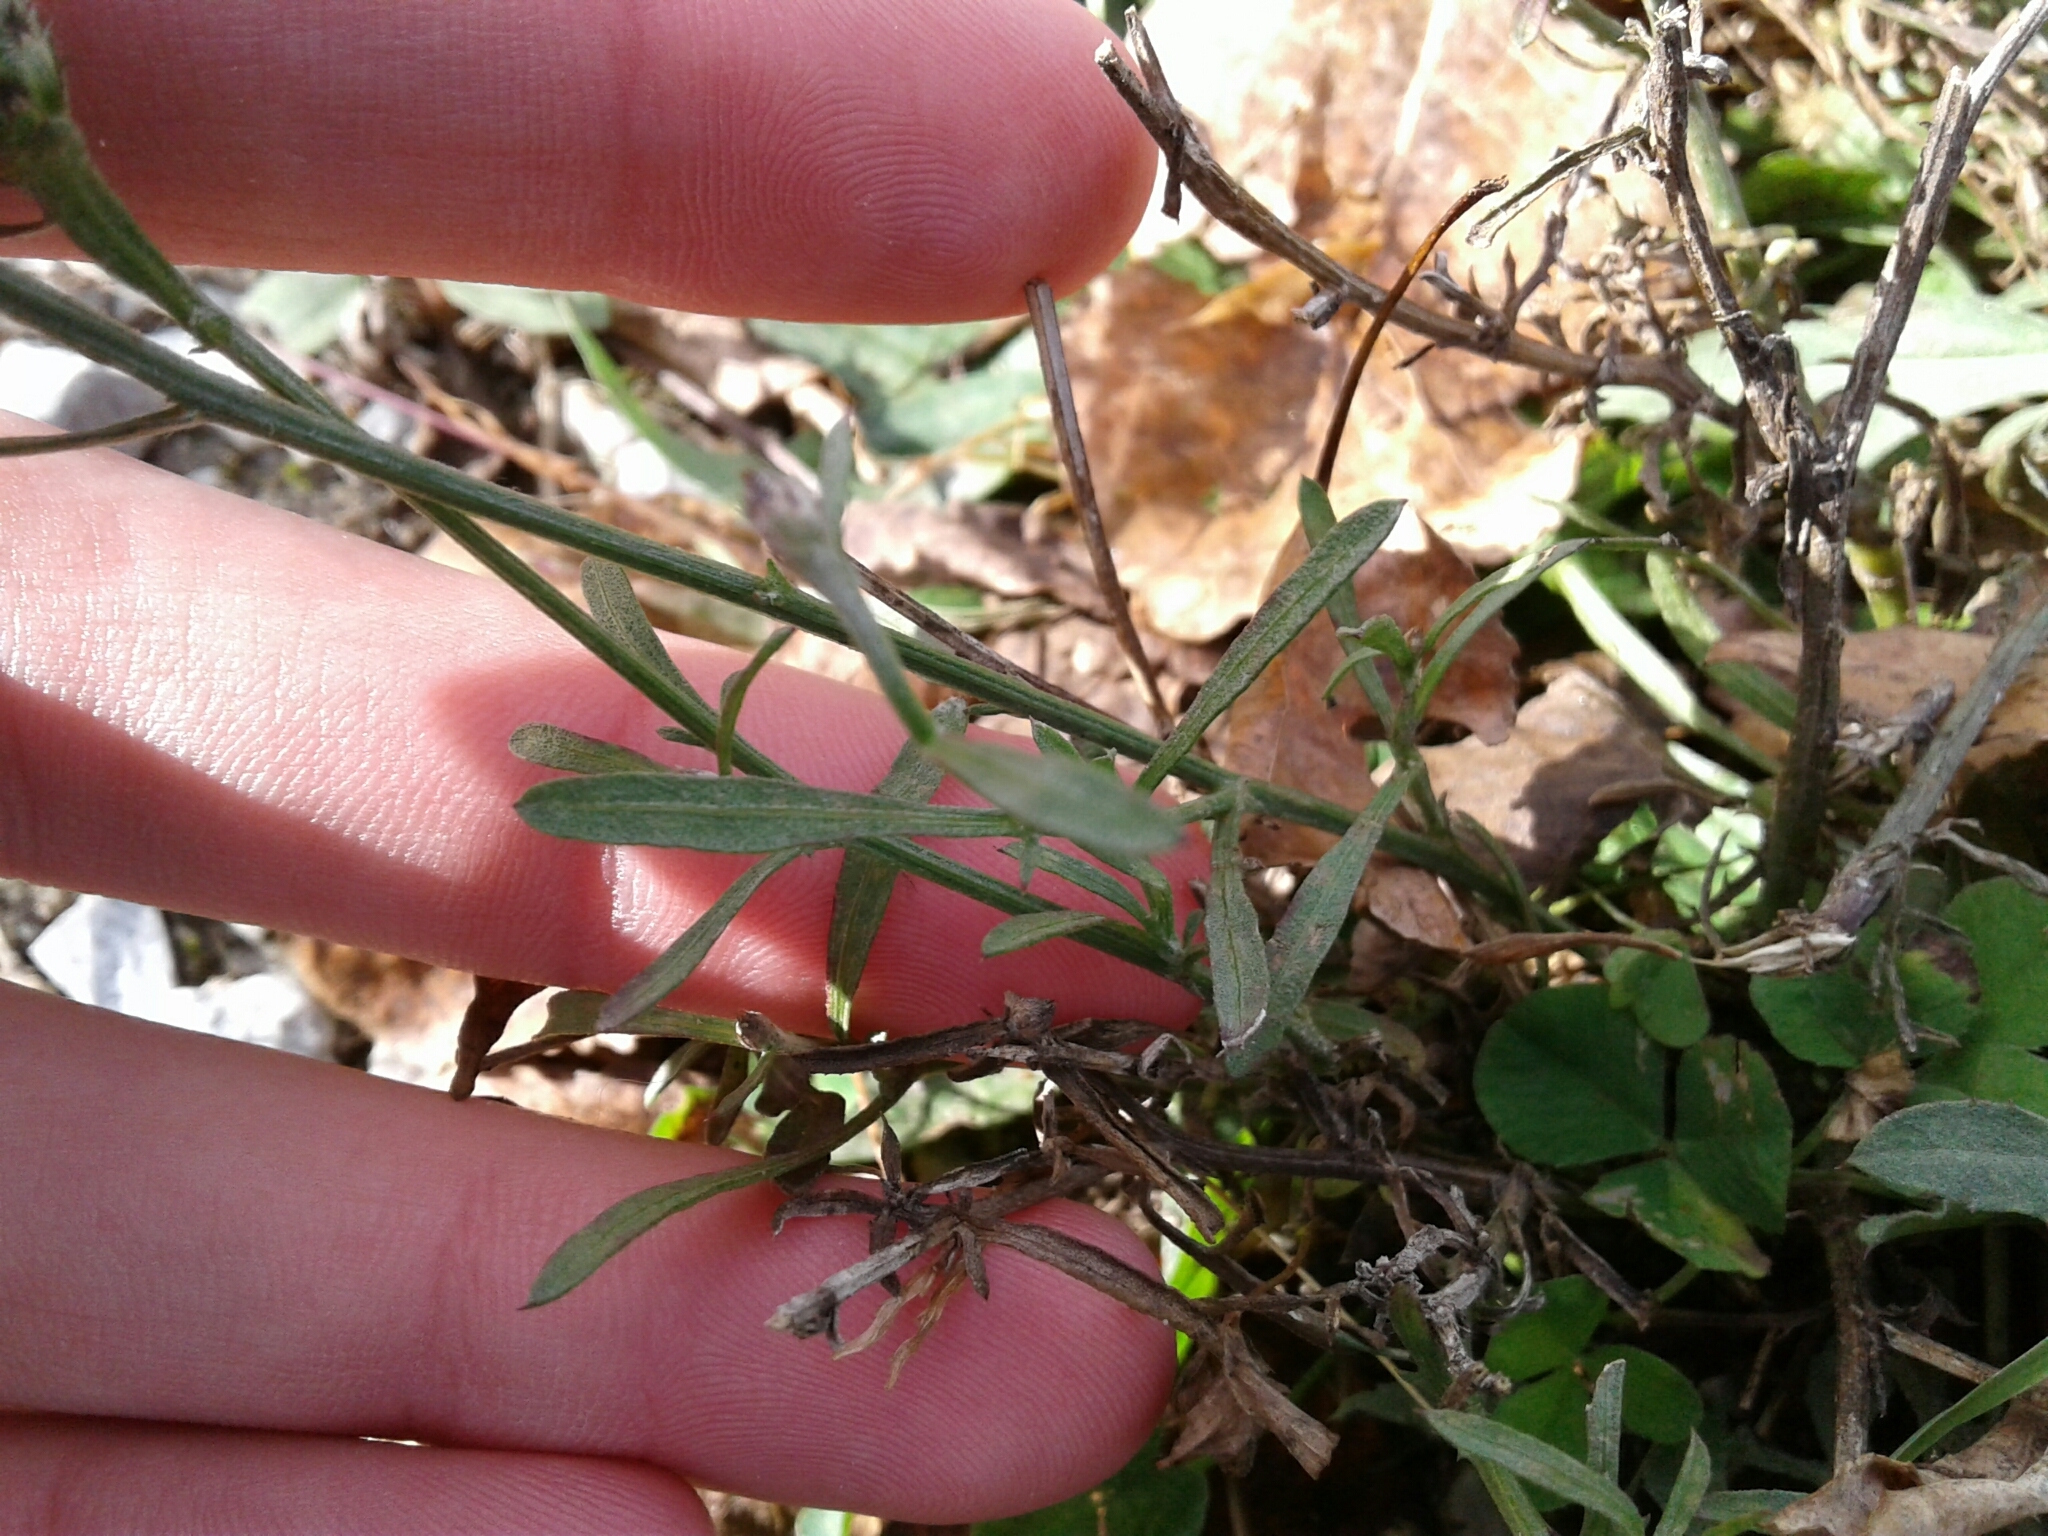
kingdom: Plantae
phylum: Tracheophyta
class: Magnoliopsida
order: Asterales
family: Asteraceae
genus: Centaurea
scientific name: Centaurea stoebe
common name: Spotted knapweed
